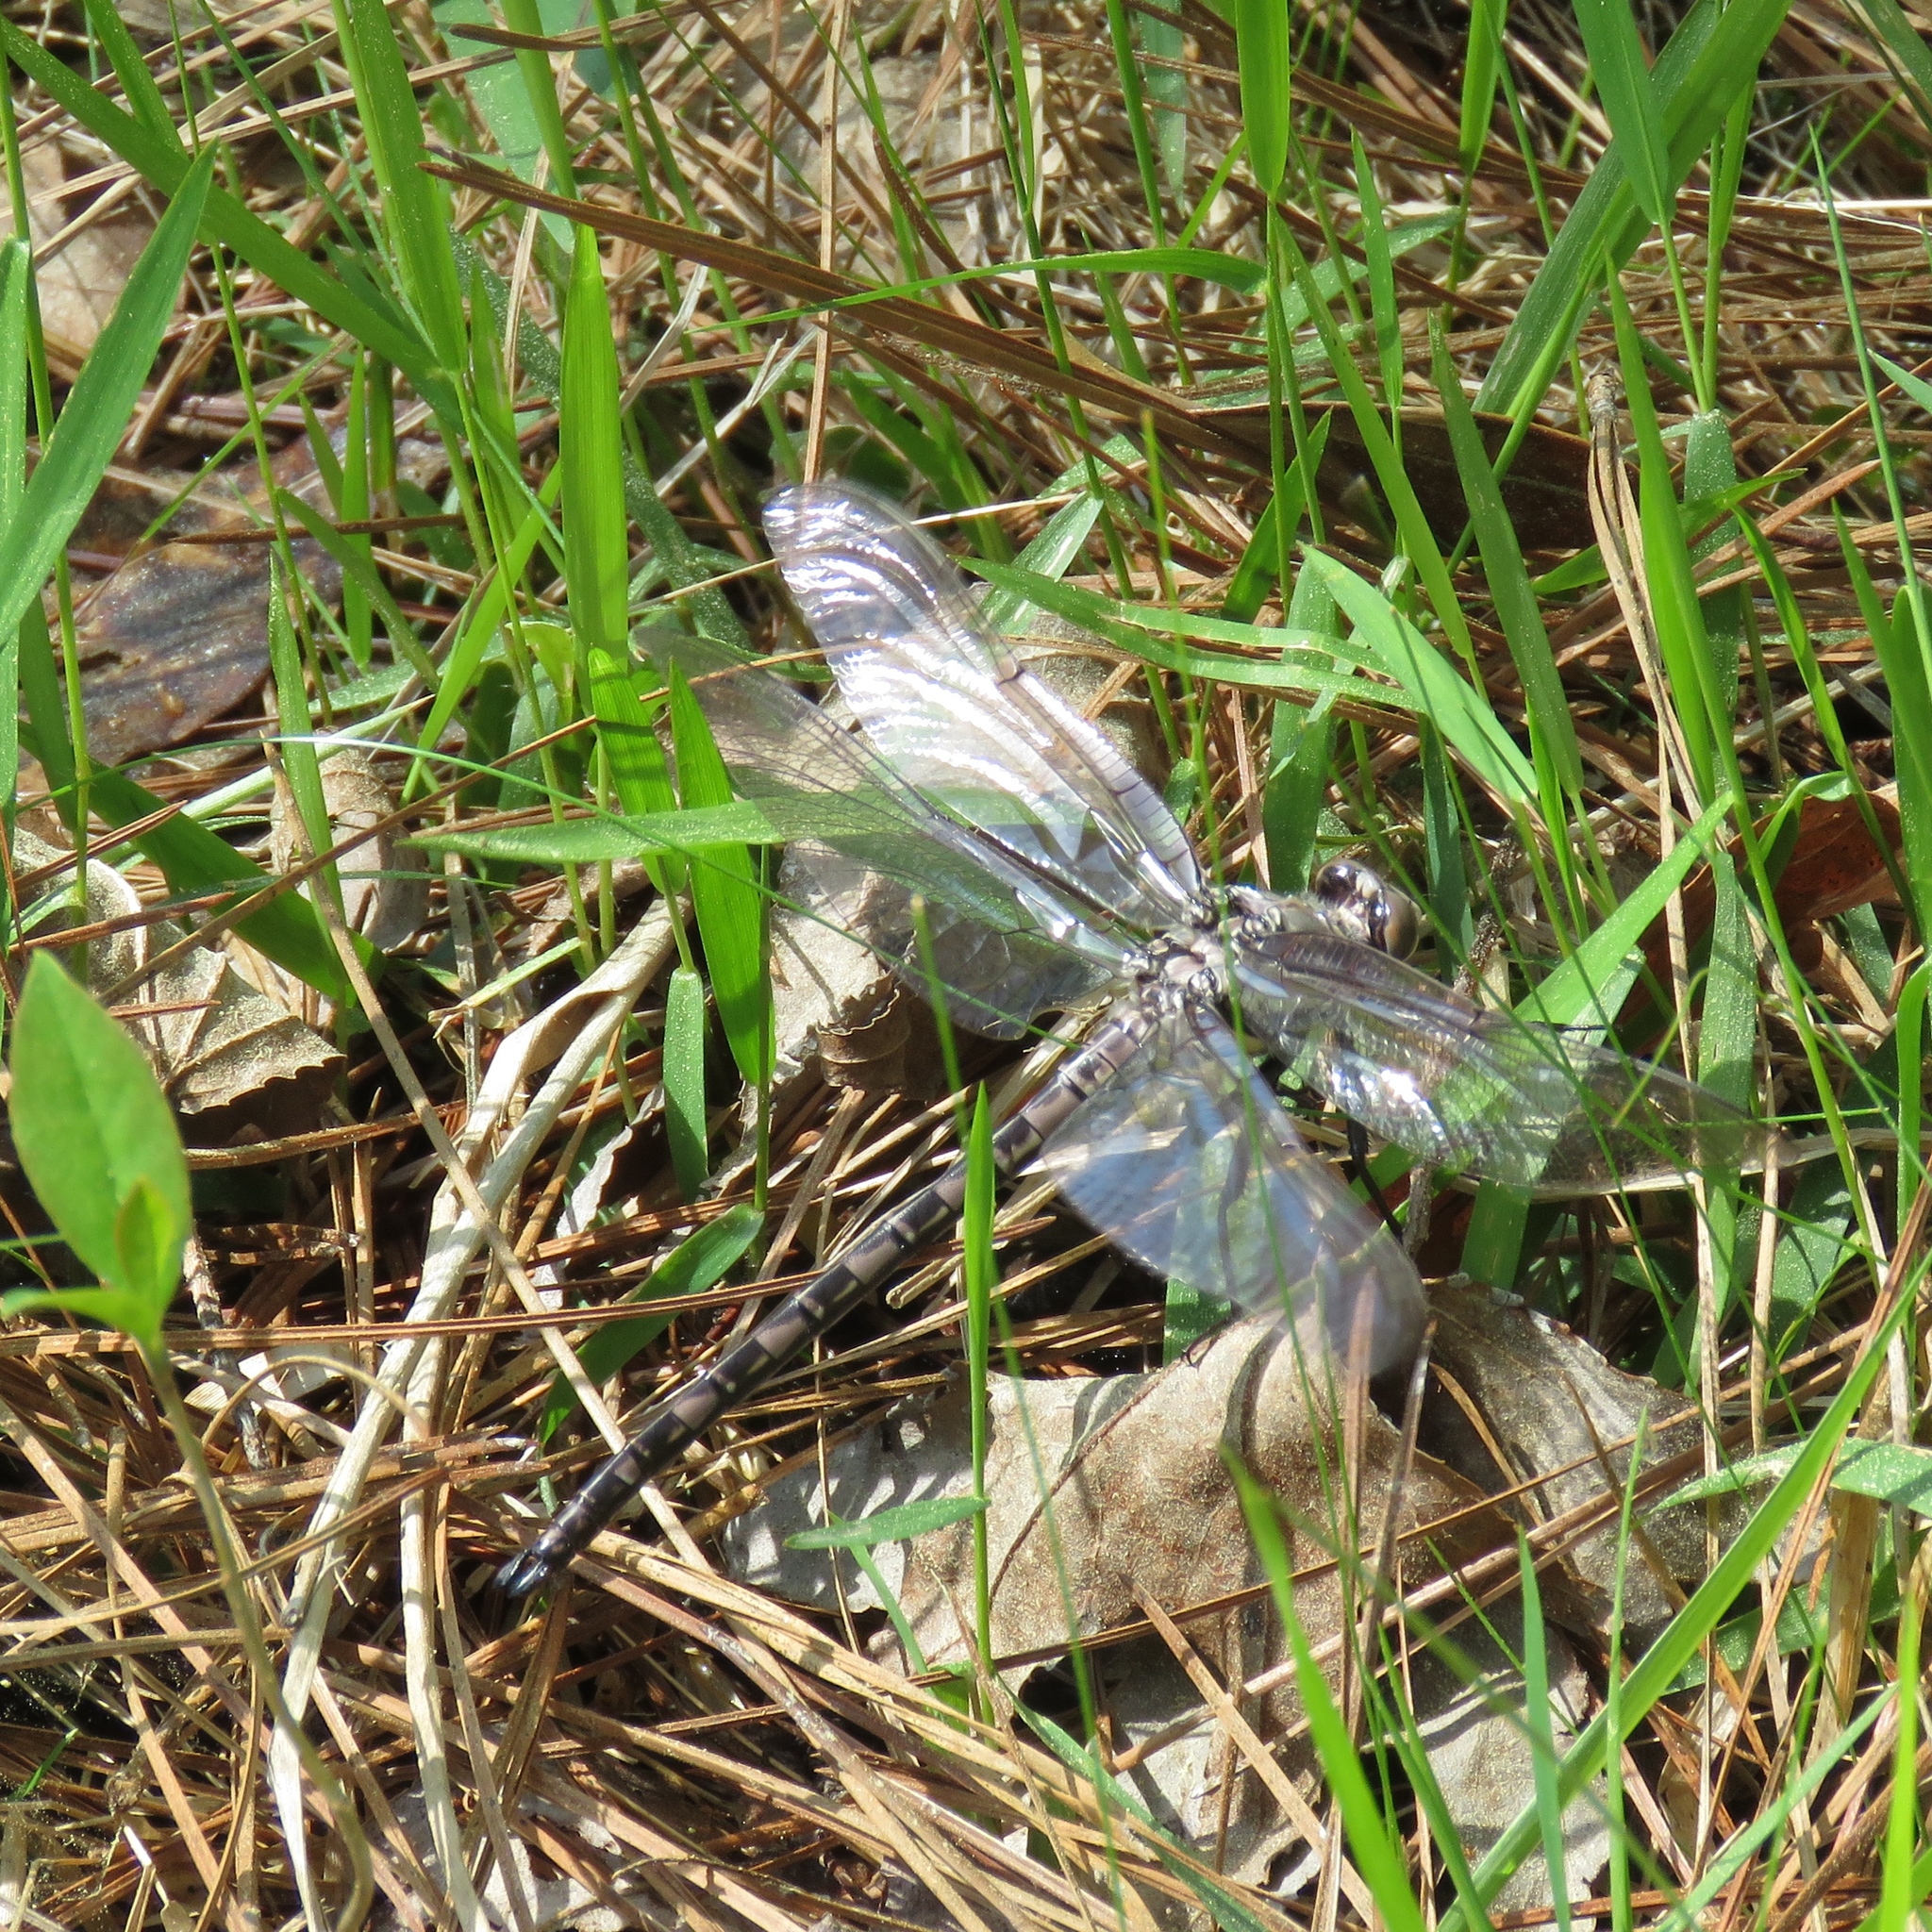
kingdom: Animalia
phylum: Arthropoda
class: Insecta
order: Odonata
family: Petaluridae
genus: Tachopteryx
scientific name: Tachopteryx thoreyi
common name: Gray petaltail
